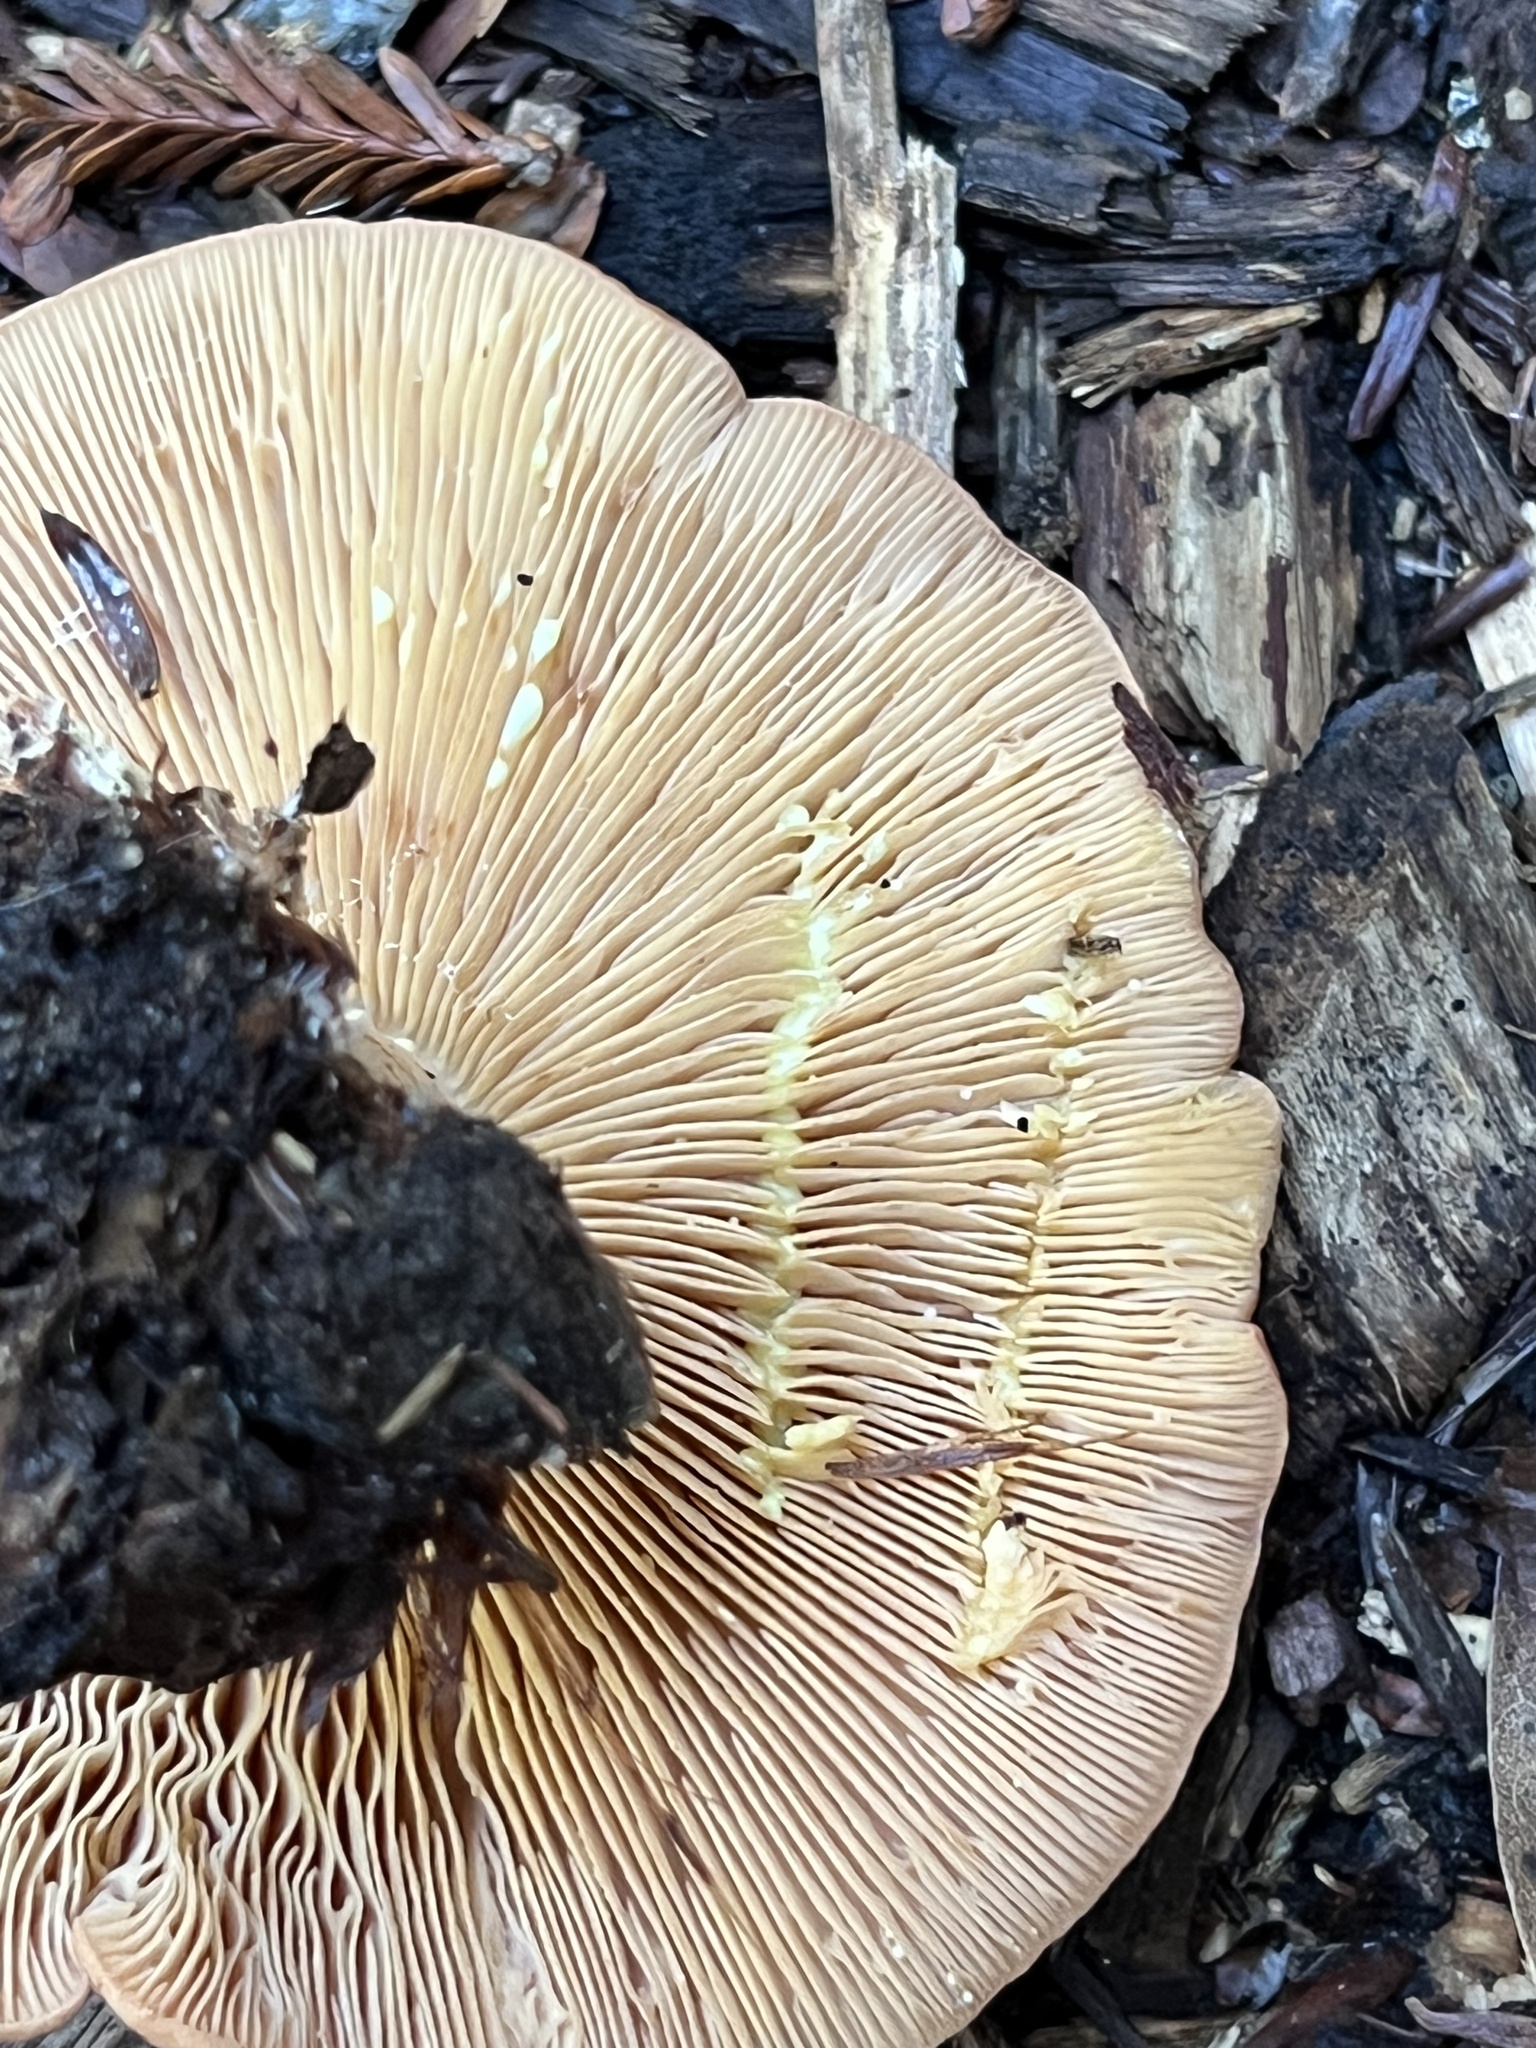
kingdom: Fungi
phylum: Basidiomycota
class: Agaricomycetes
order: Russulales
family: Russulaceae
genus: Lactarius
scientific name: Lactarius xanthogalactus
